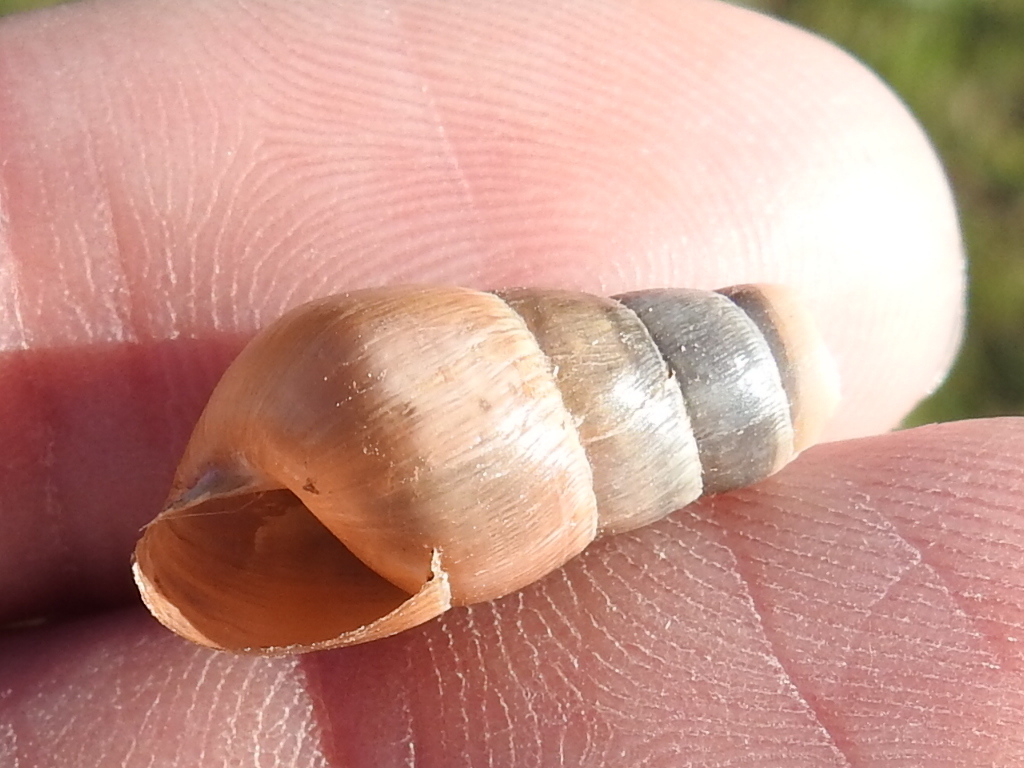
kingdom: Animalia
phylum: Mollusca
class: Gastropoda
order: Stylommatophora
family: Achatinidae
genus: Rumina
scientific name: Rumina decollata
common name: Decollate snail
